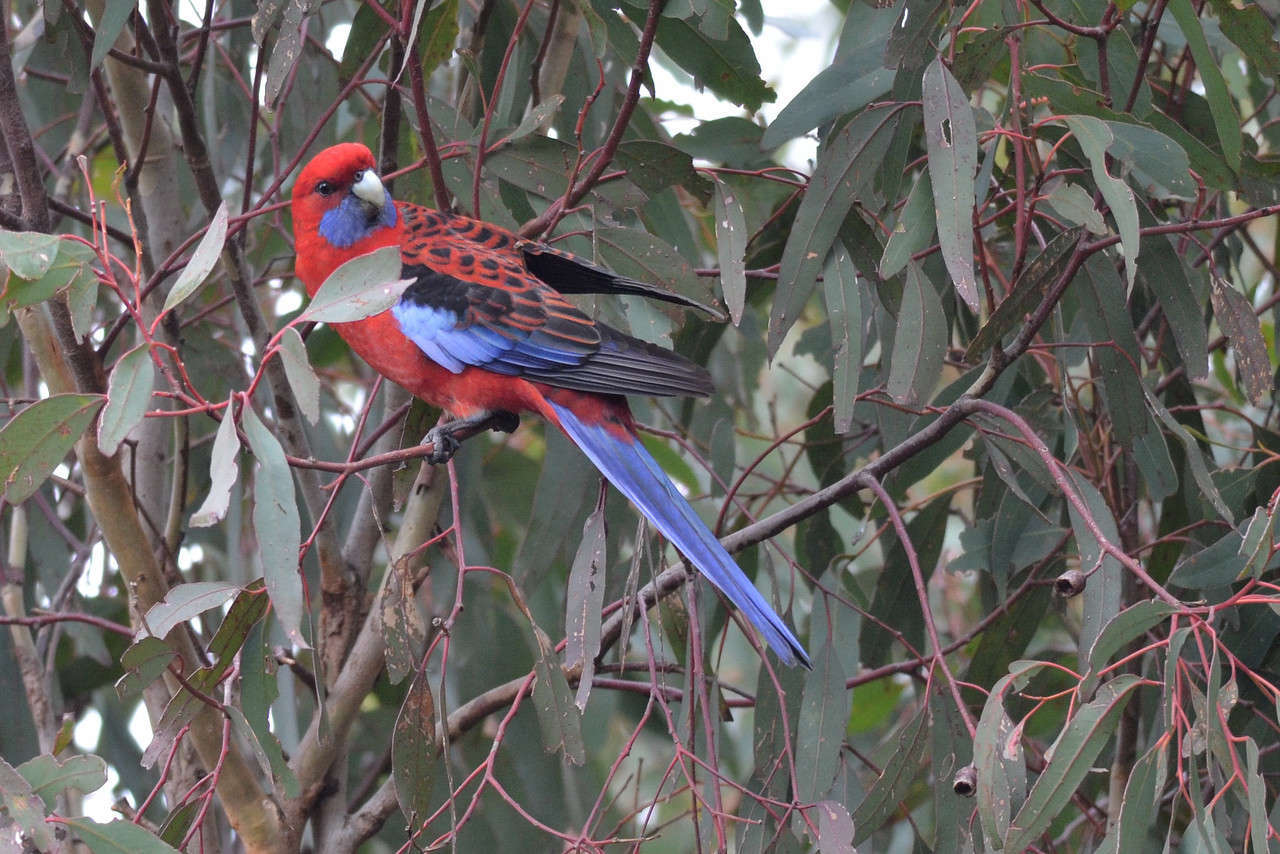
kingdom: Animalia
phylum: Chordata
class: Aves
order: Psittaciformes
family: Psittacidae
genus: Platycercus
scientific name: Platycercus elegans
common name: Crimson rosella
